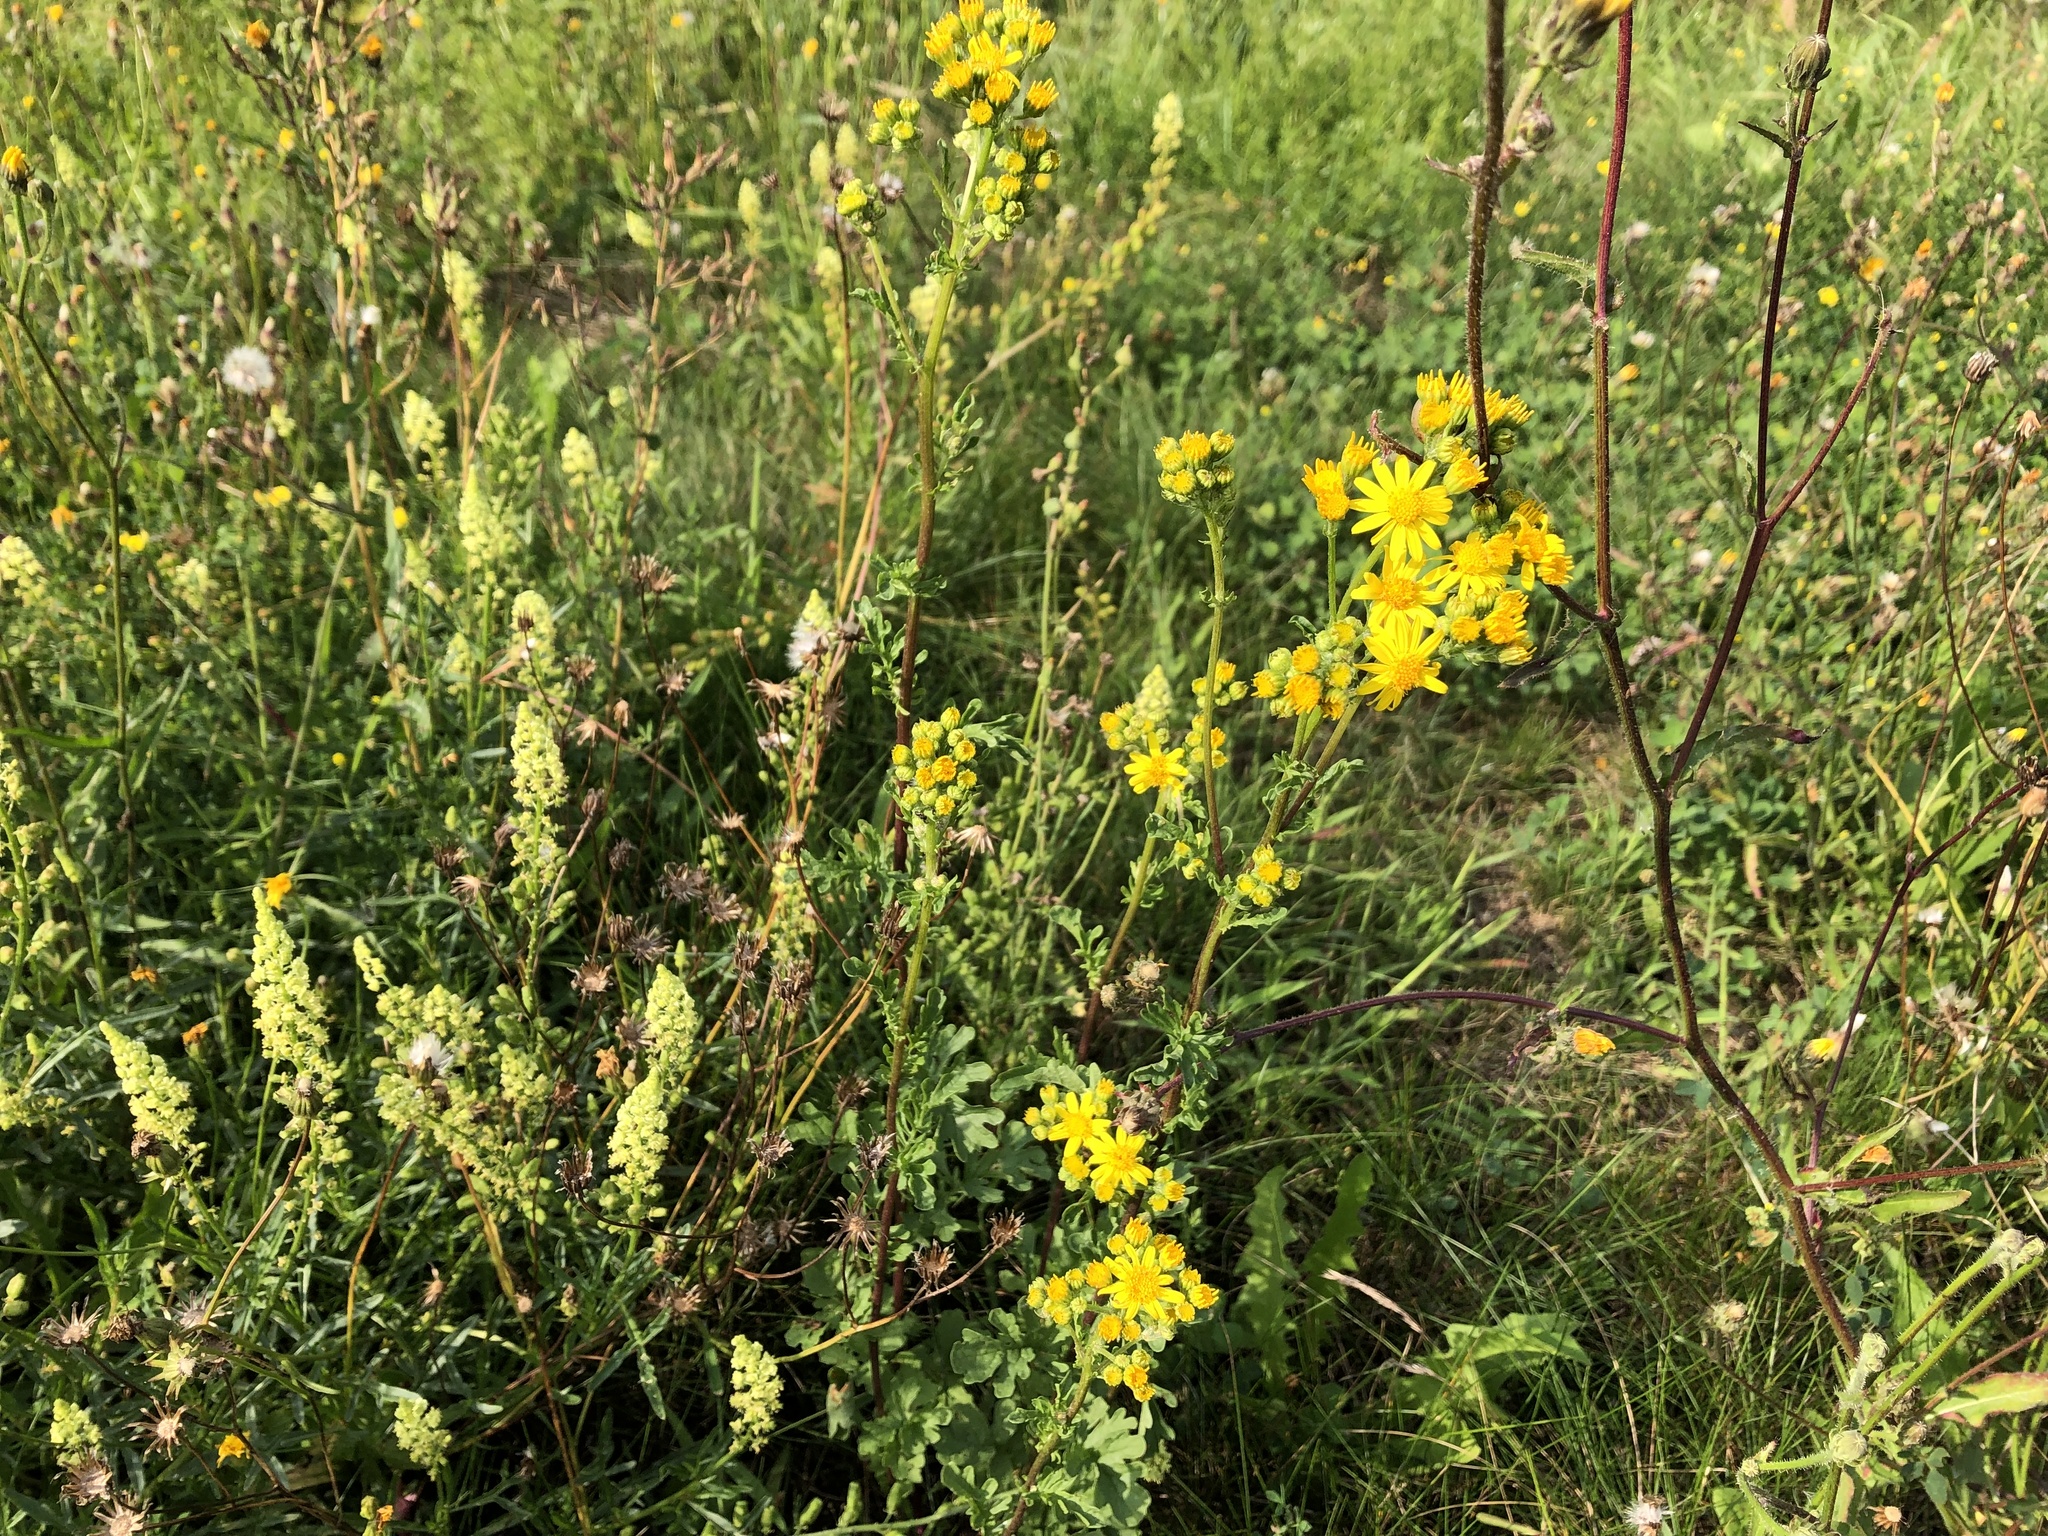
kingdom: Plantae
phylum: Tracheophyta
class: Magnoliopsida
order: Asterales
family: Asteraceae
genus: Jacobaea
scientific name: Jacobaea vulgaris
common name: Stinking willie
